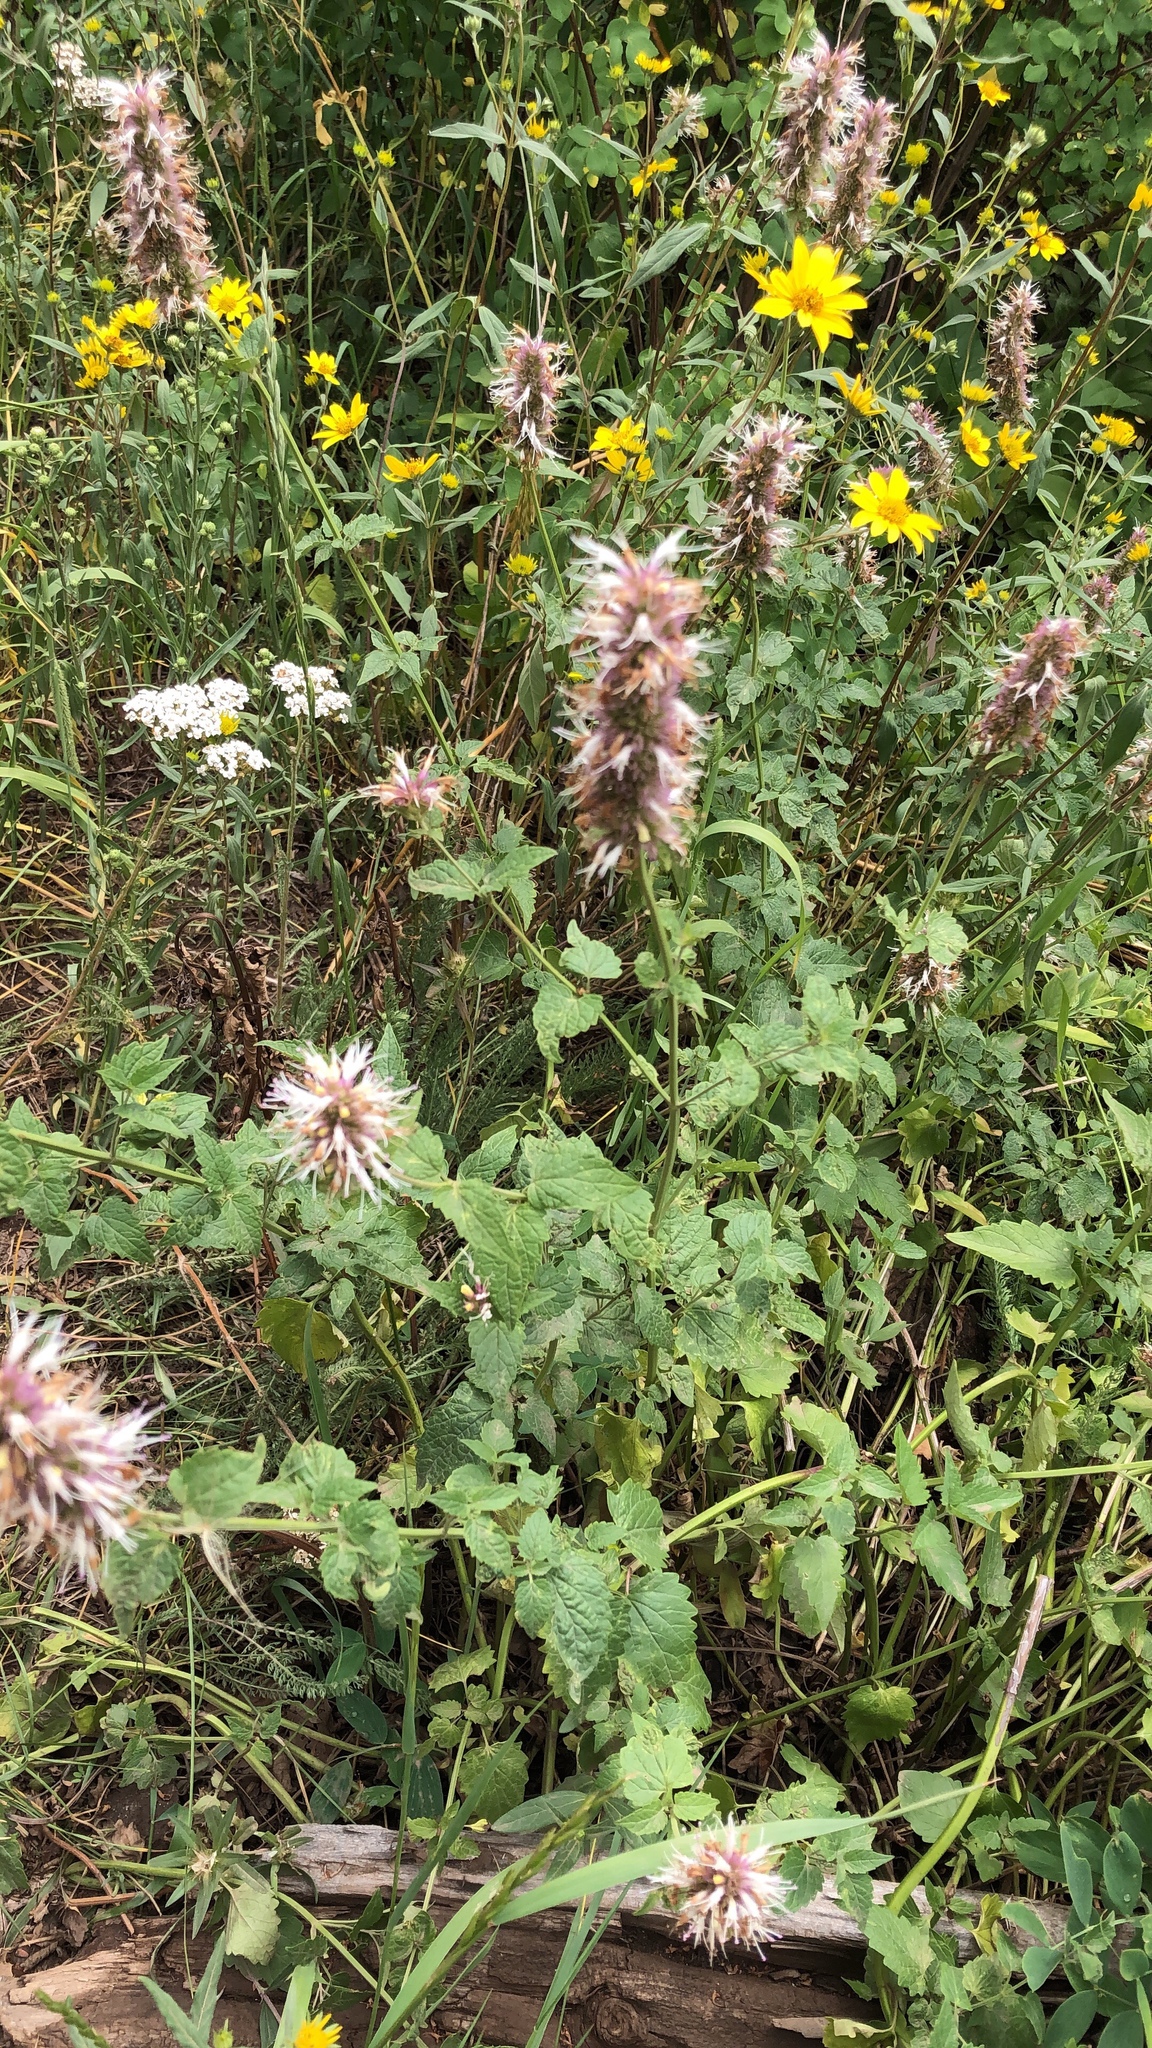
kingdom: Plantae
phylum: Tracheophyta
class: Magnoliopsida
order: Lamiales
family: Lamiaceae
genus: Agastache
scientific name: Agastache urticifolia
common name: Horsemint giant hyssop
